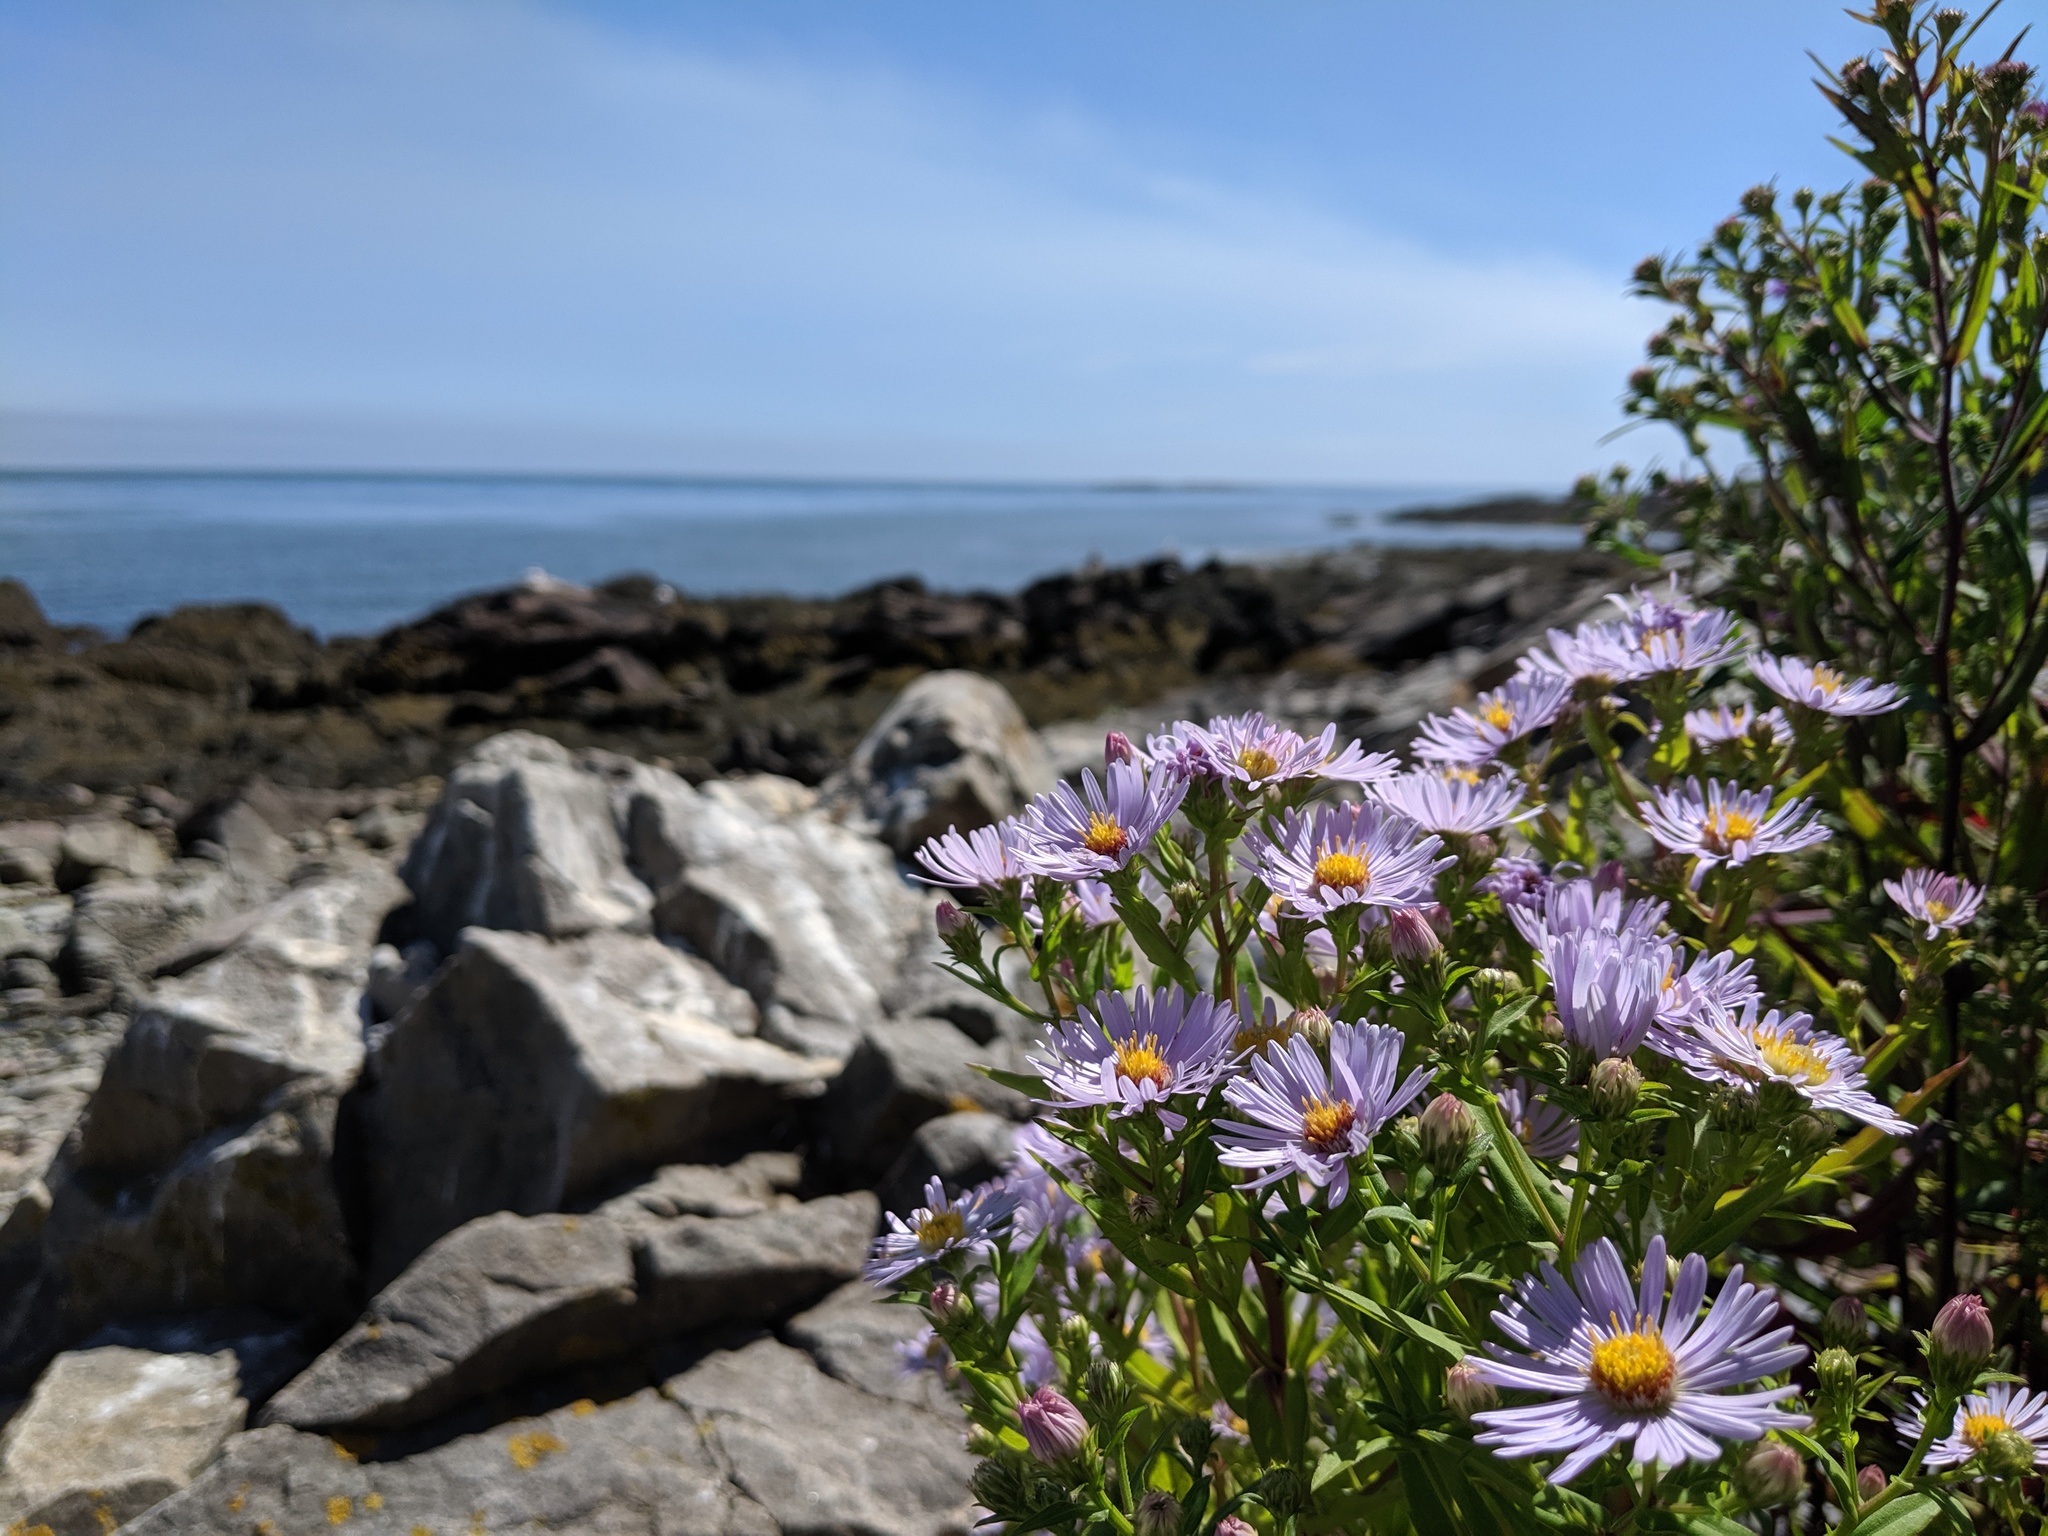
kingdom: Plantae
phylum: Tracheophyta
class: Magnoliopsida
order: Asterales
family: Asteraceae
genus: Symphyotrichum
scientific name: Symphyotrichum novi-belgii
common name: Michaelmas daisy
